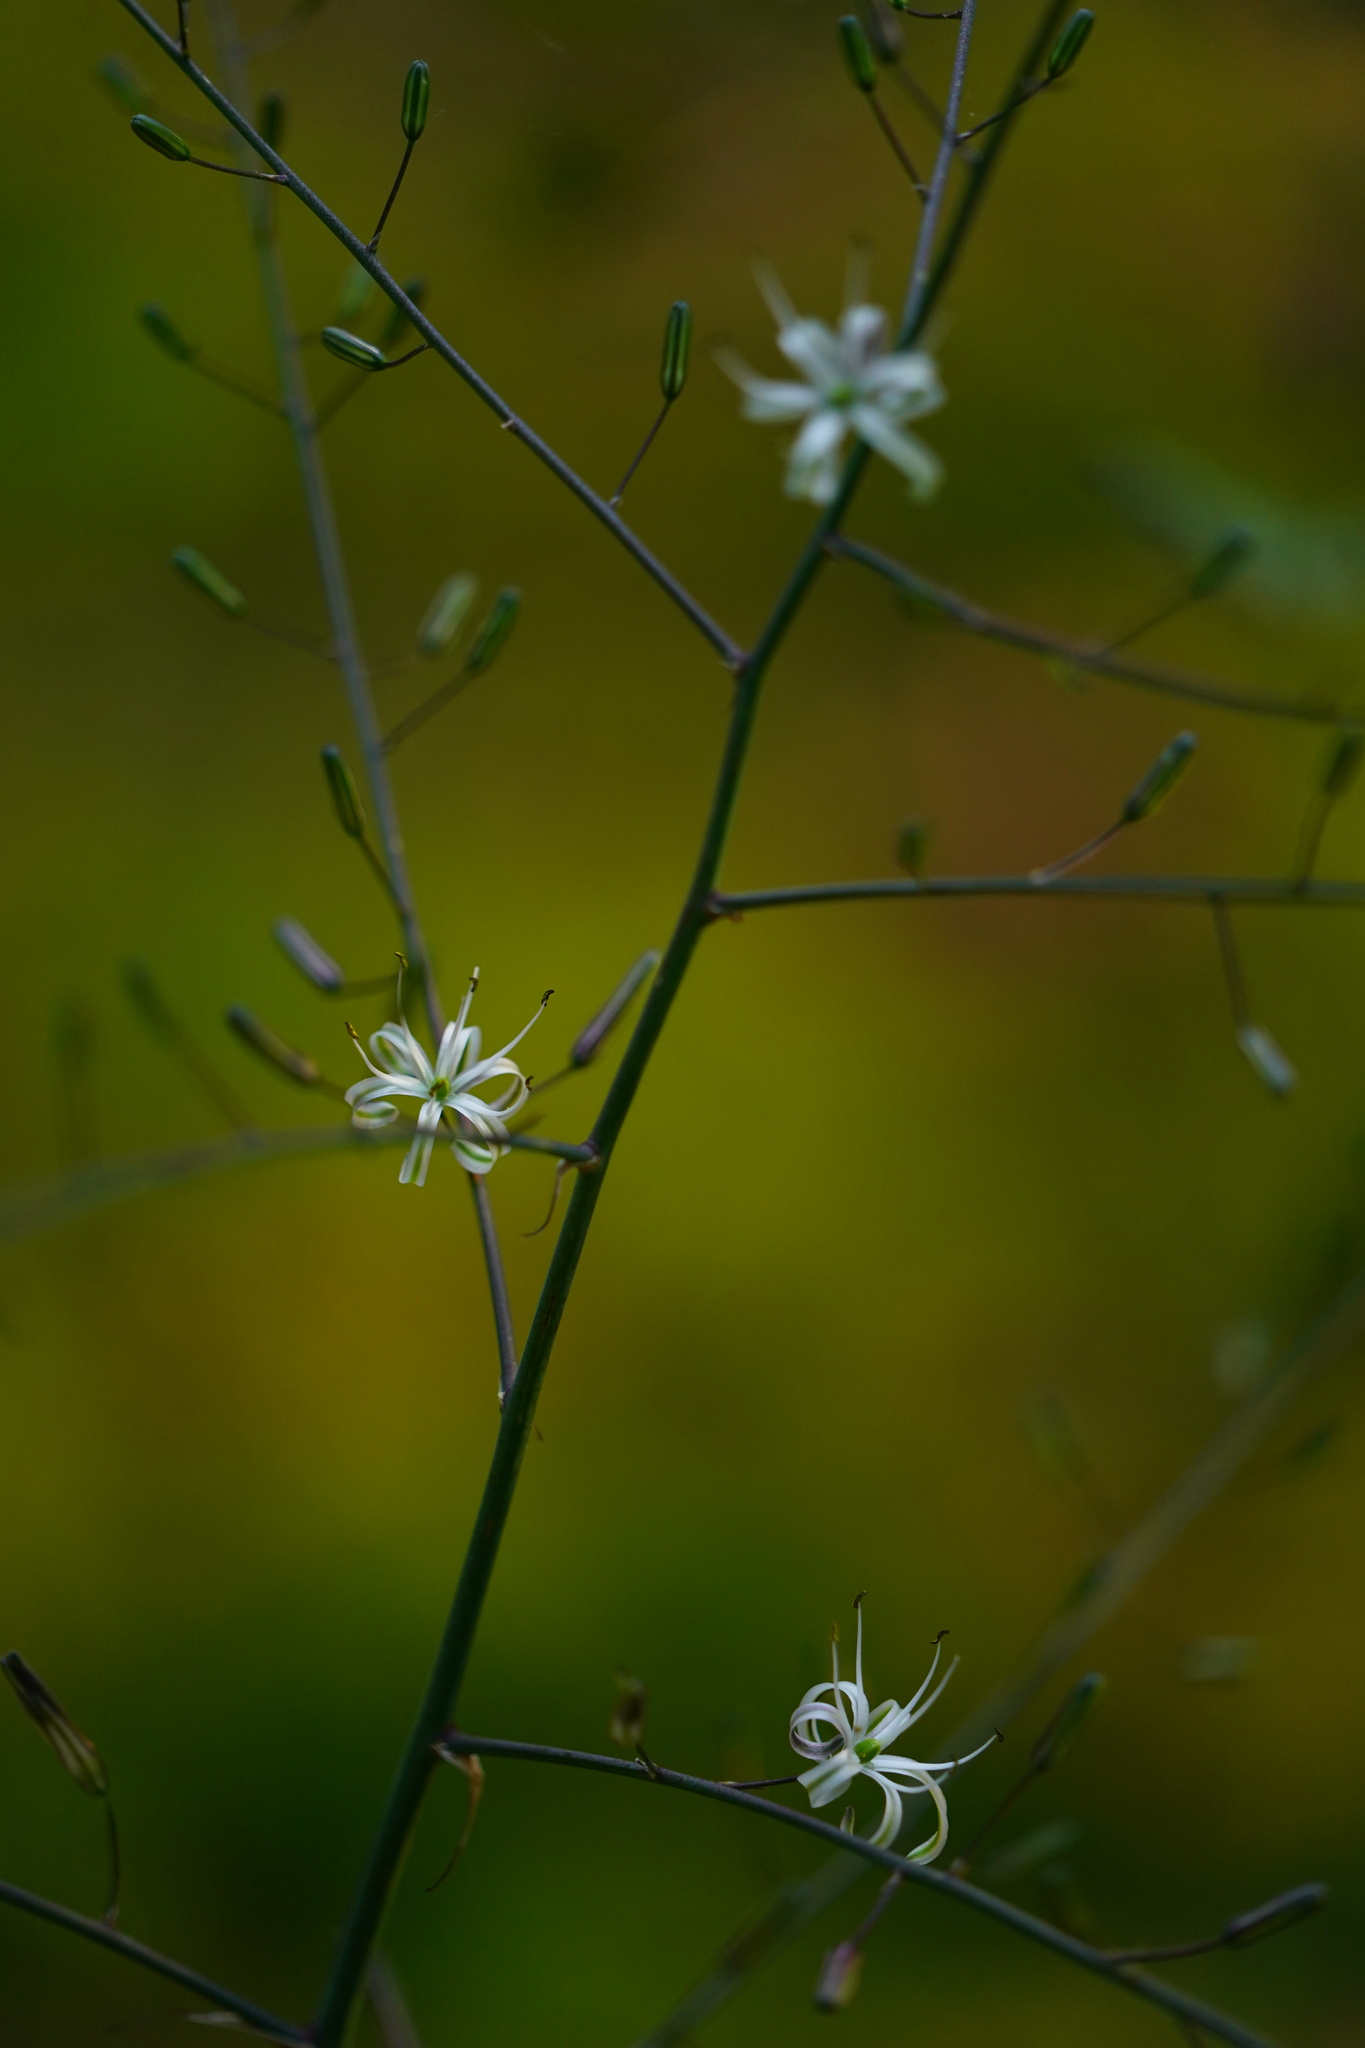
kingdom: Plantae
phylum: Tracheophyta
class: Liliopsida
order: Asparagales
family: Asparagaceae
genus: Chlorogalum
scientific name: Chlorogalum pomeridianum
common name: Amole
